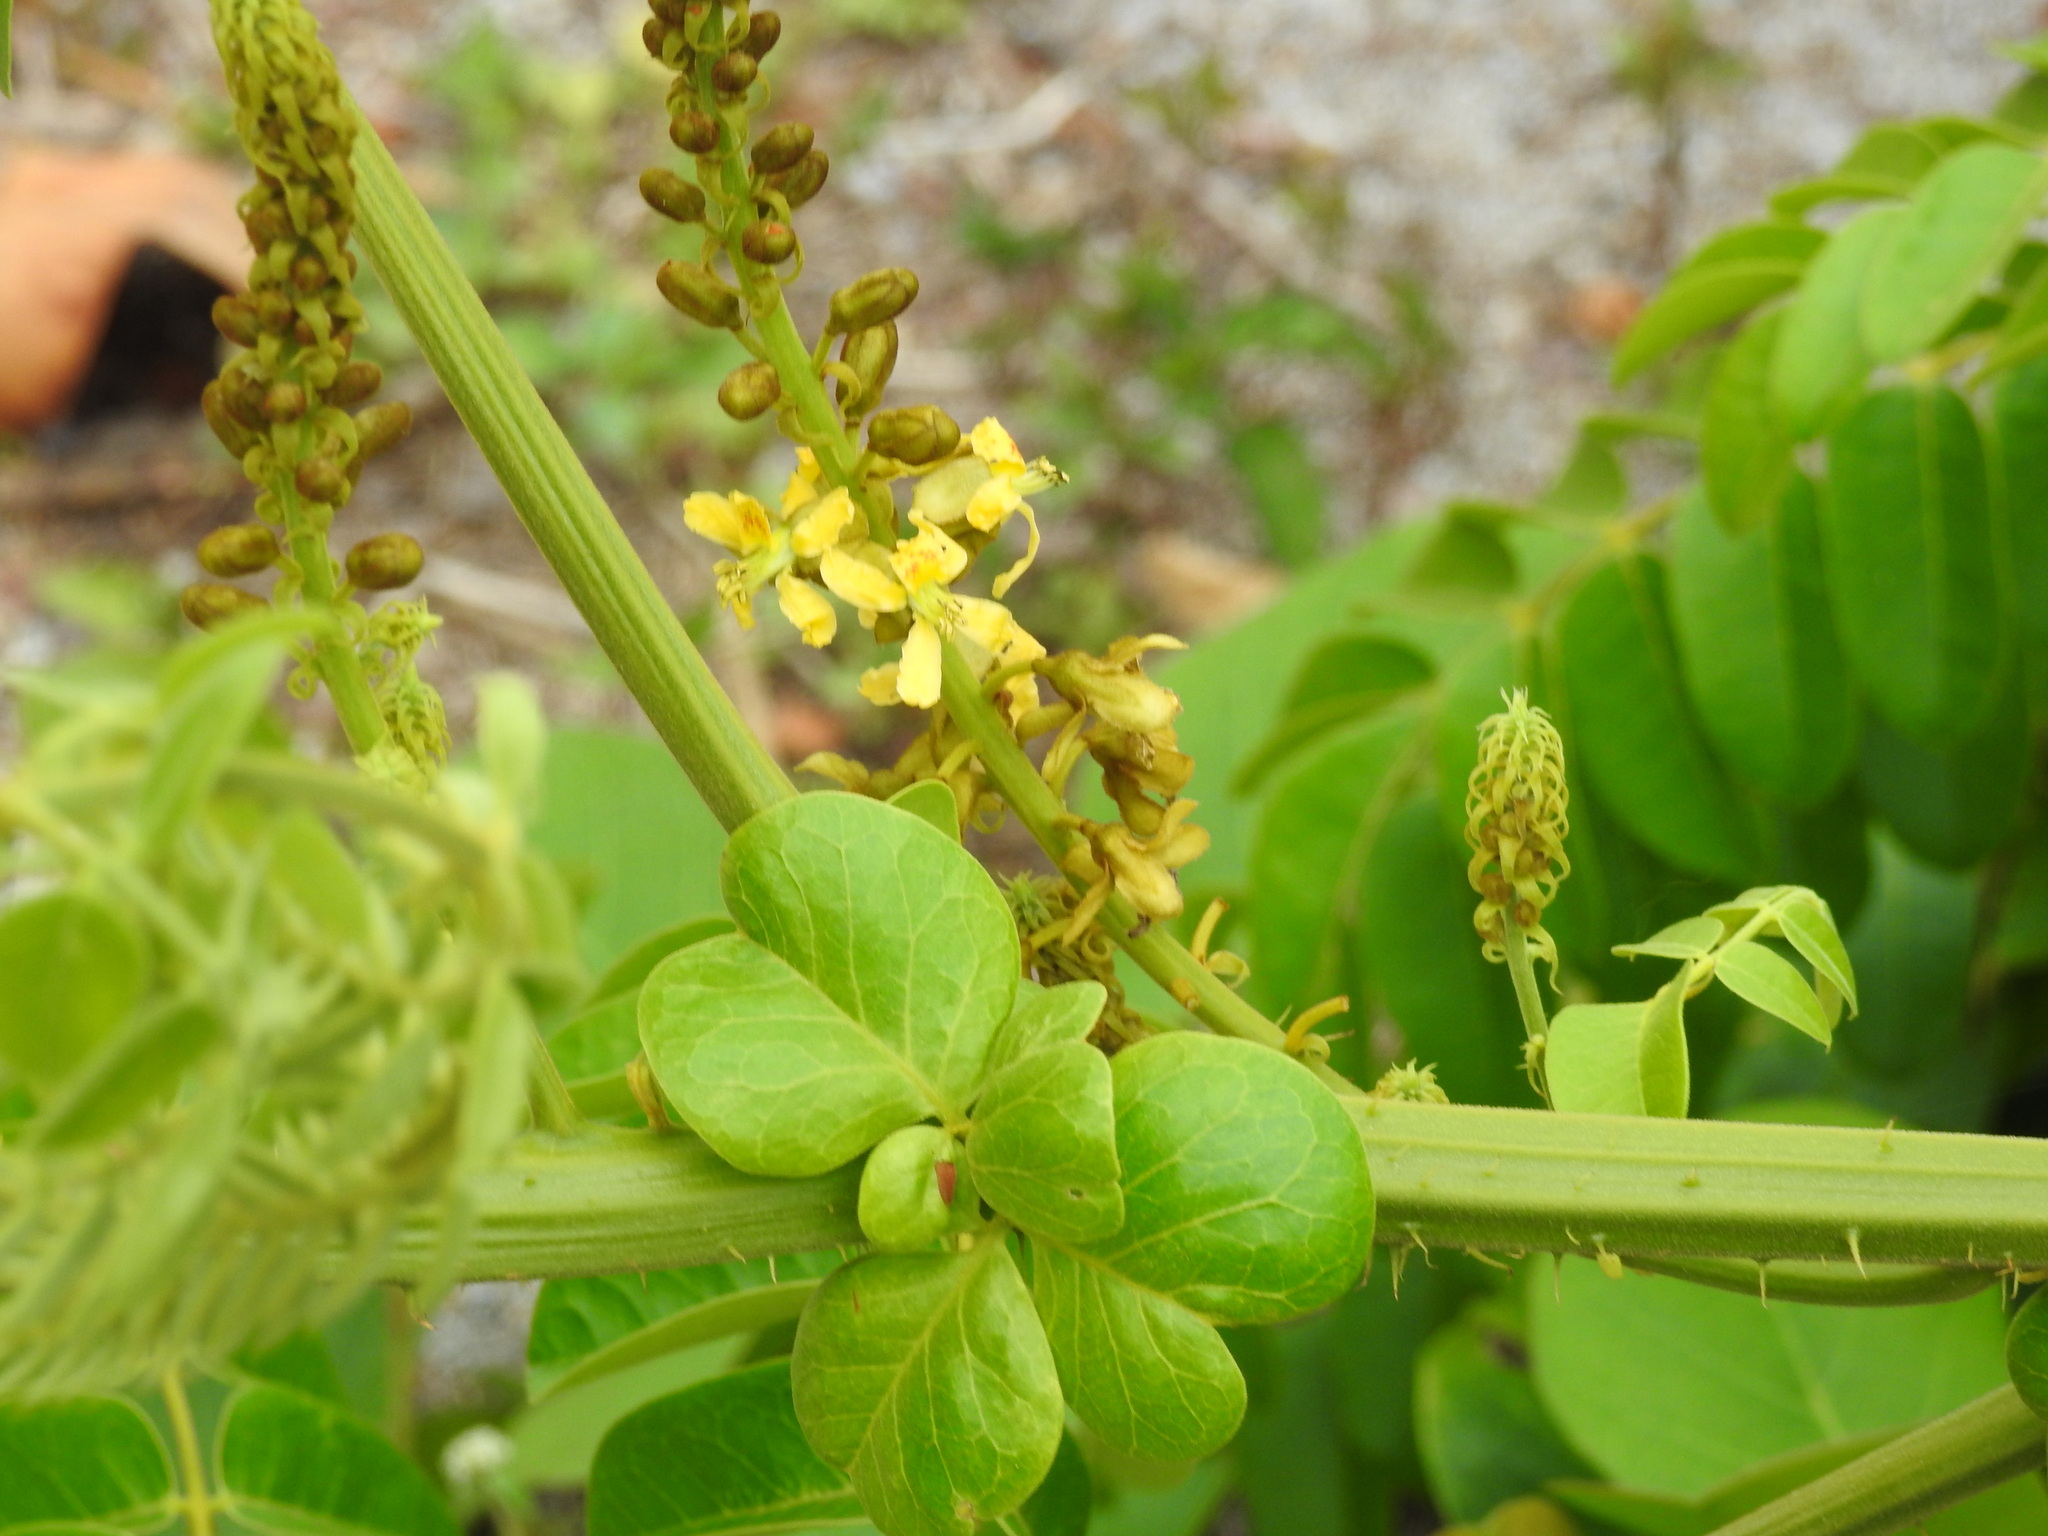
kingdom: Plantae
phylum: Tracheophyta
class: Magnoliopsida
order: Fabales
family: Fabaceae
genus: Guilandina
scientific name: Guilandina bonduc
